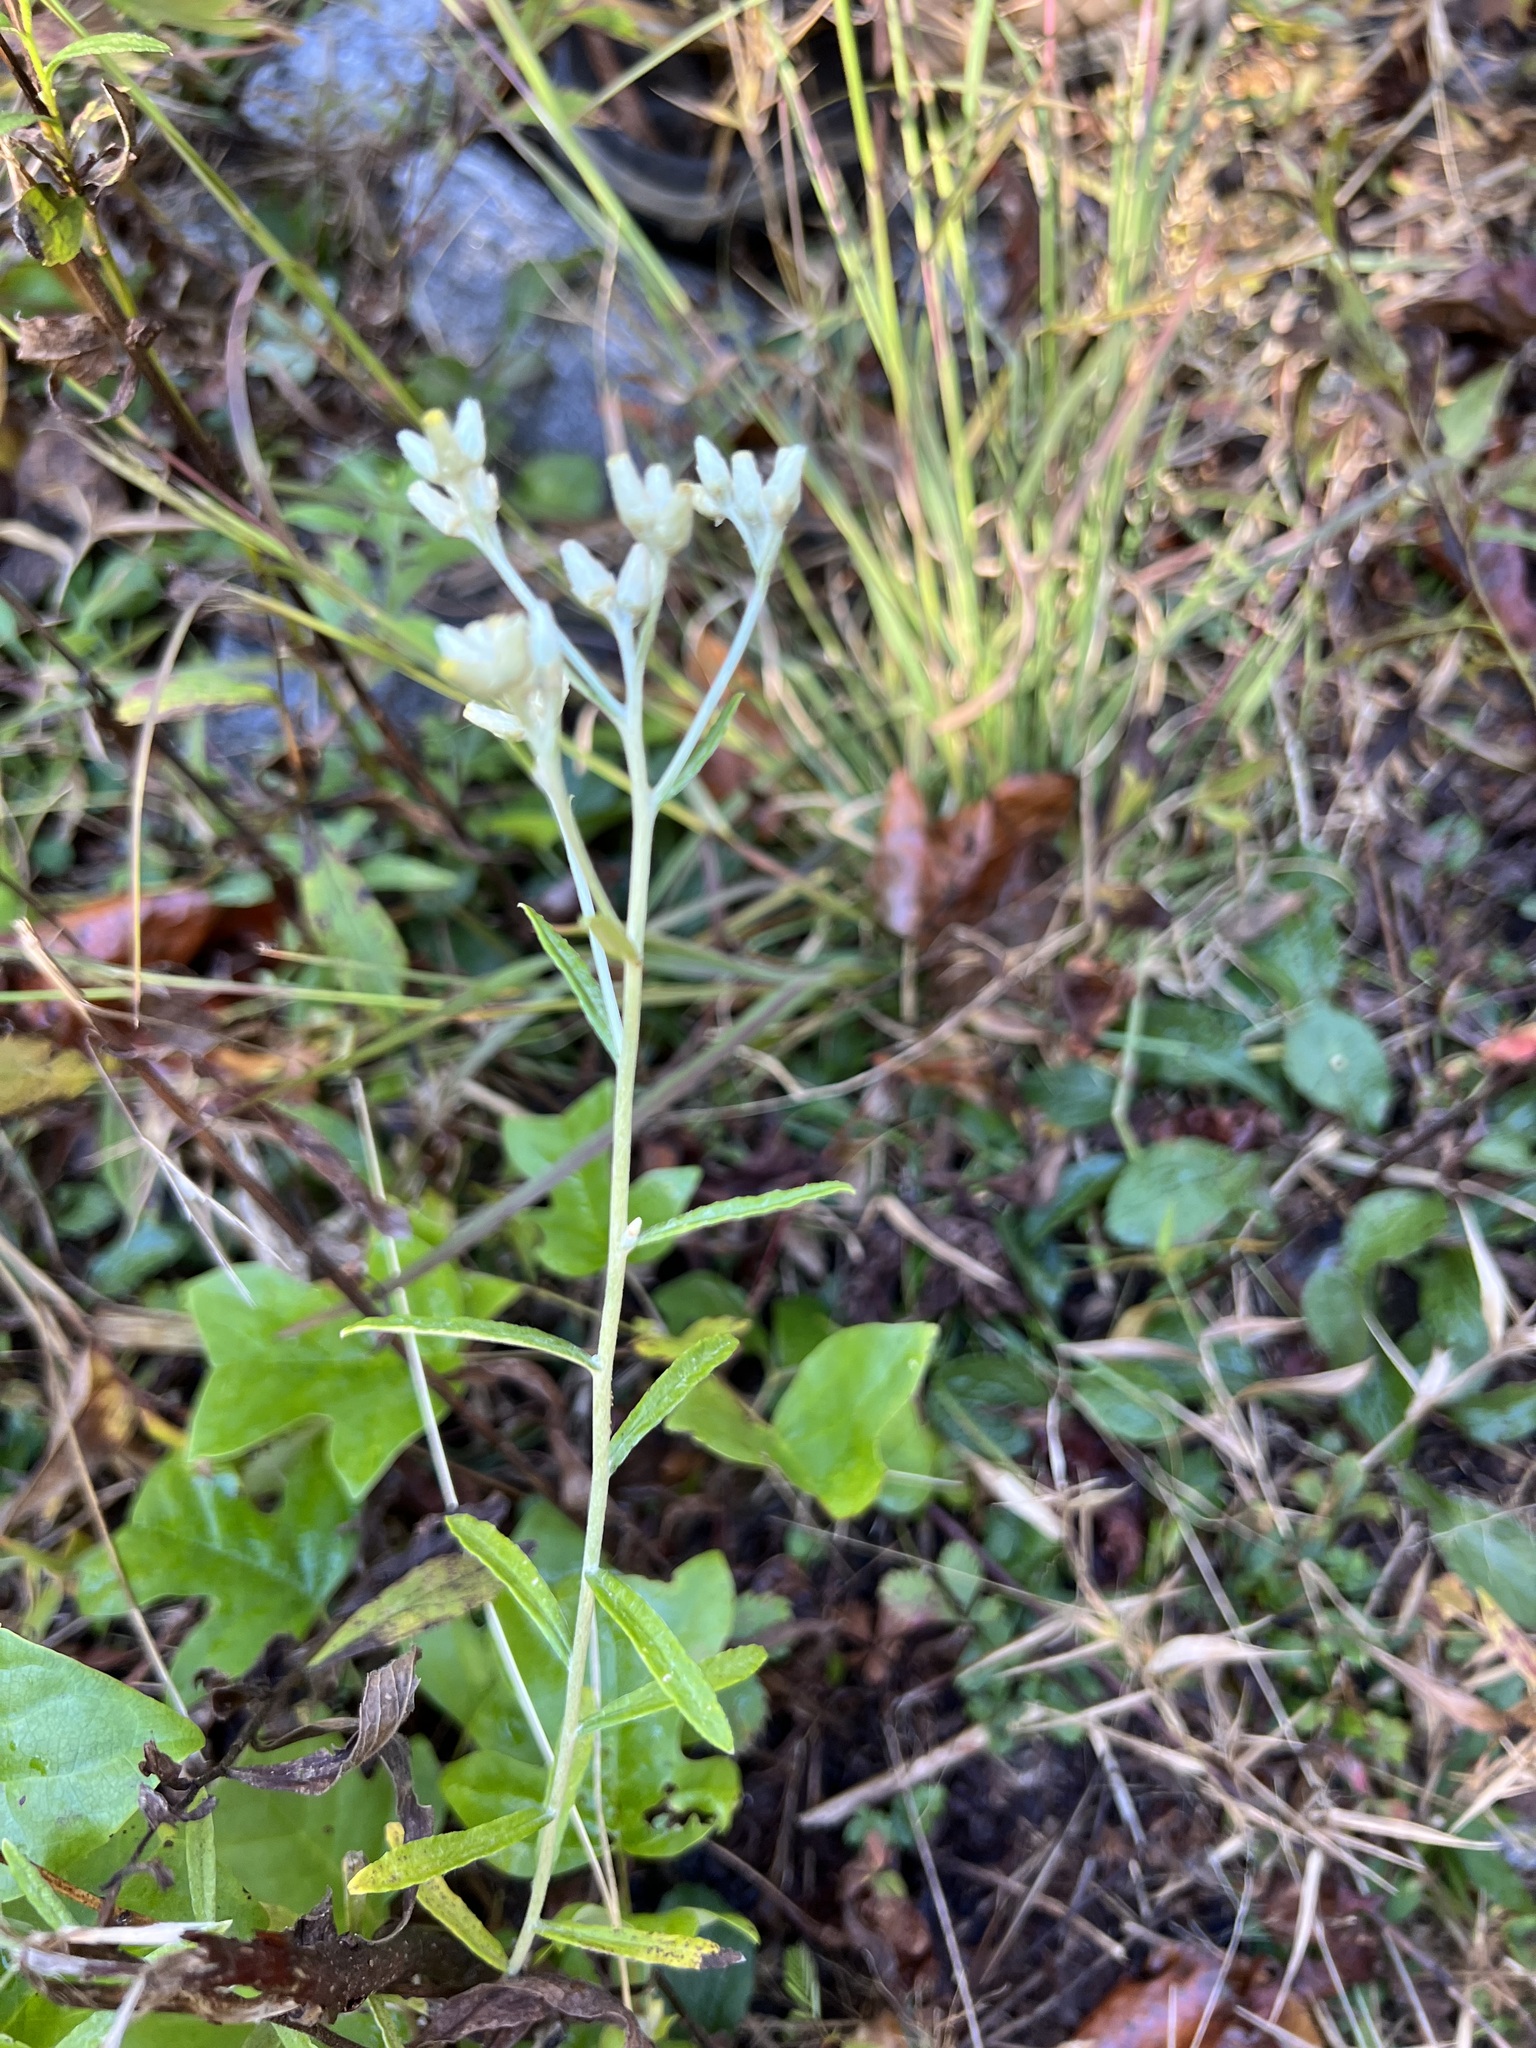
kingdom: Plantae
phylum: Tracheophyta
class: Magnoliopsida
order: Asterales
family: Asteraceae
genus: Pseudognaphalium
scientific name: Pseudognaphalium obtusifolium
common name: Eastern rabbit-tobacco
